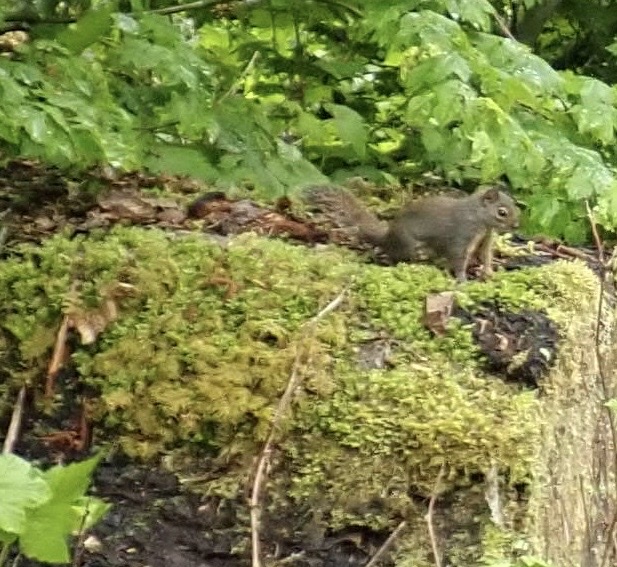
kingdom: Animalia
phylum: Chordata
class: Mammalia
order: Rodentia
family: Sciuridae
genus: Tamiasciurus
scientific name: Tamiasciurus douglasii
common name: Douglas's squirrel
